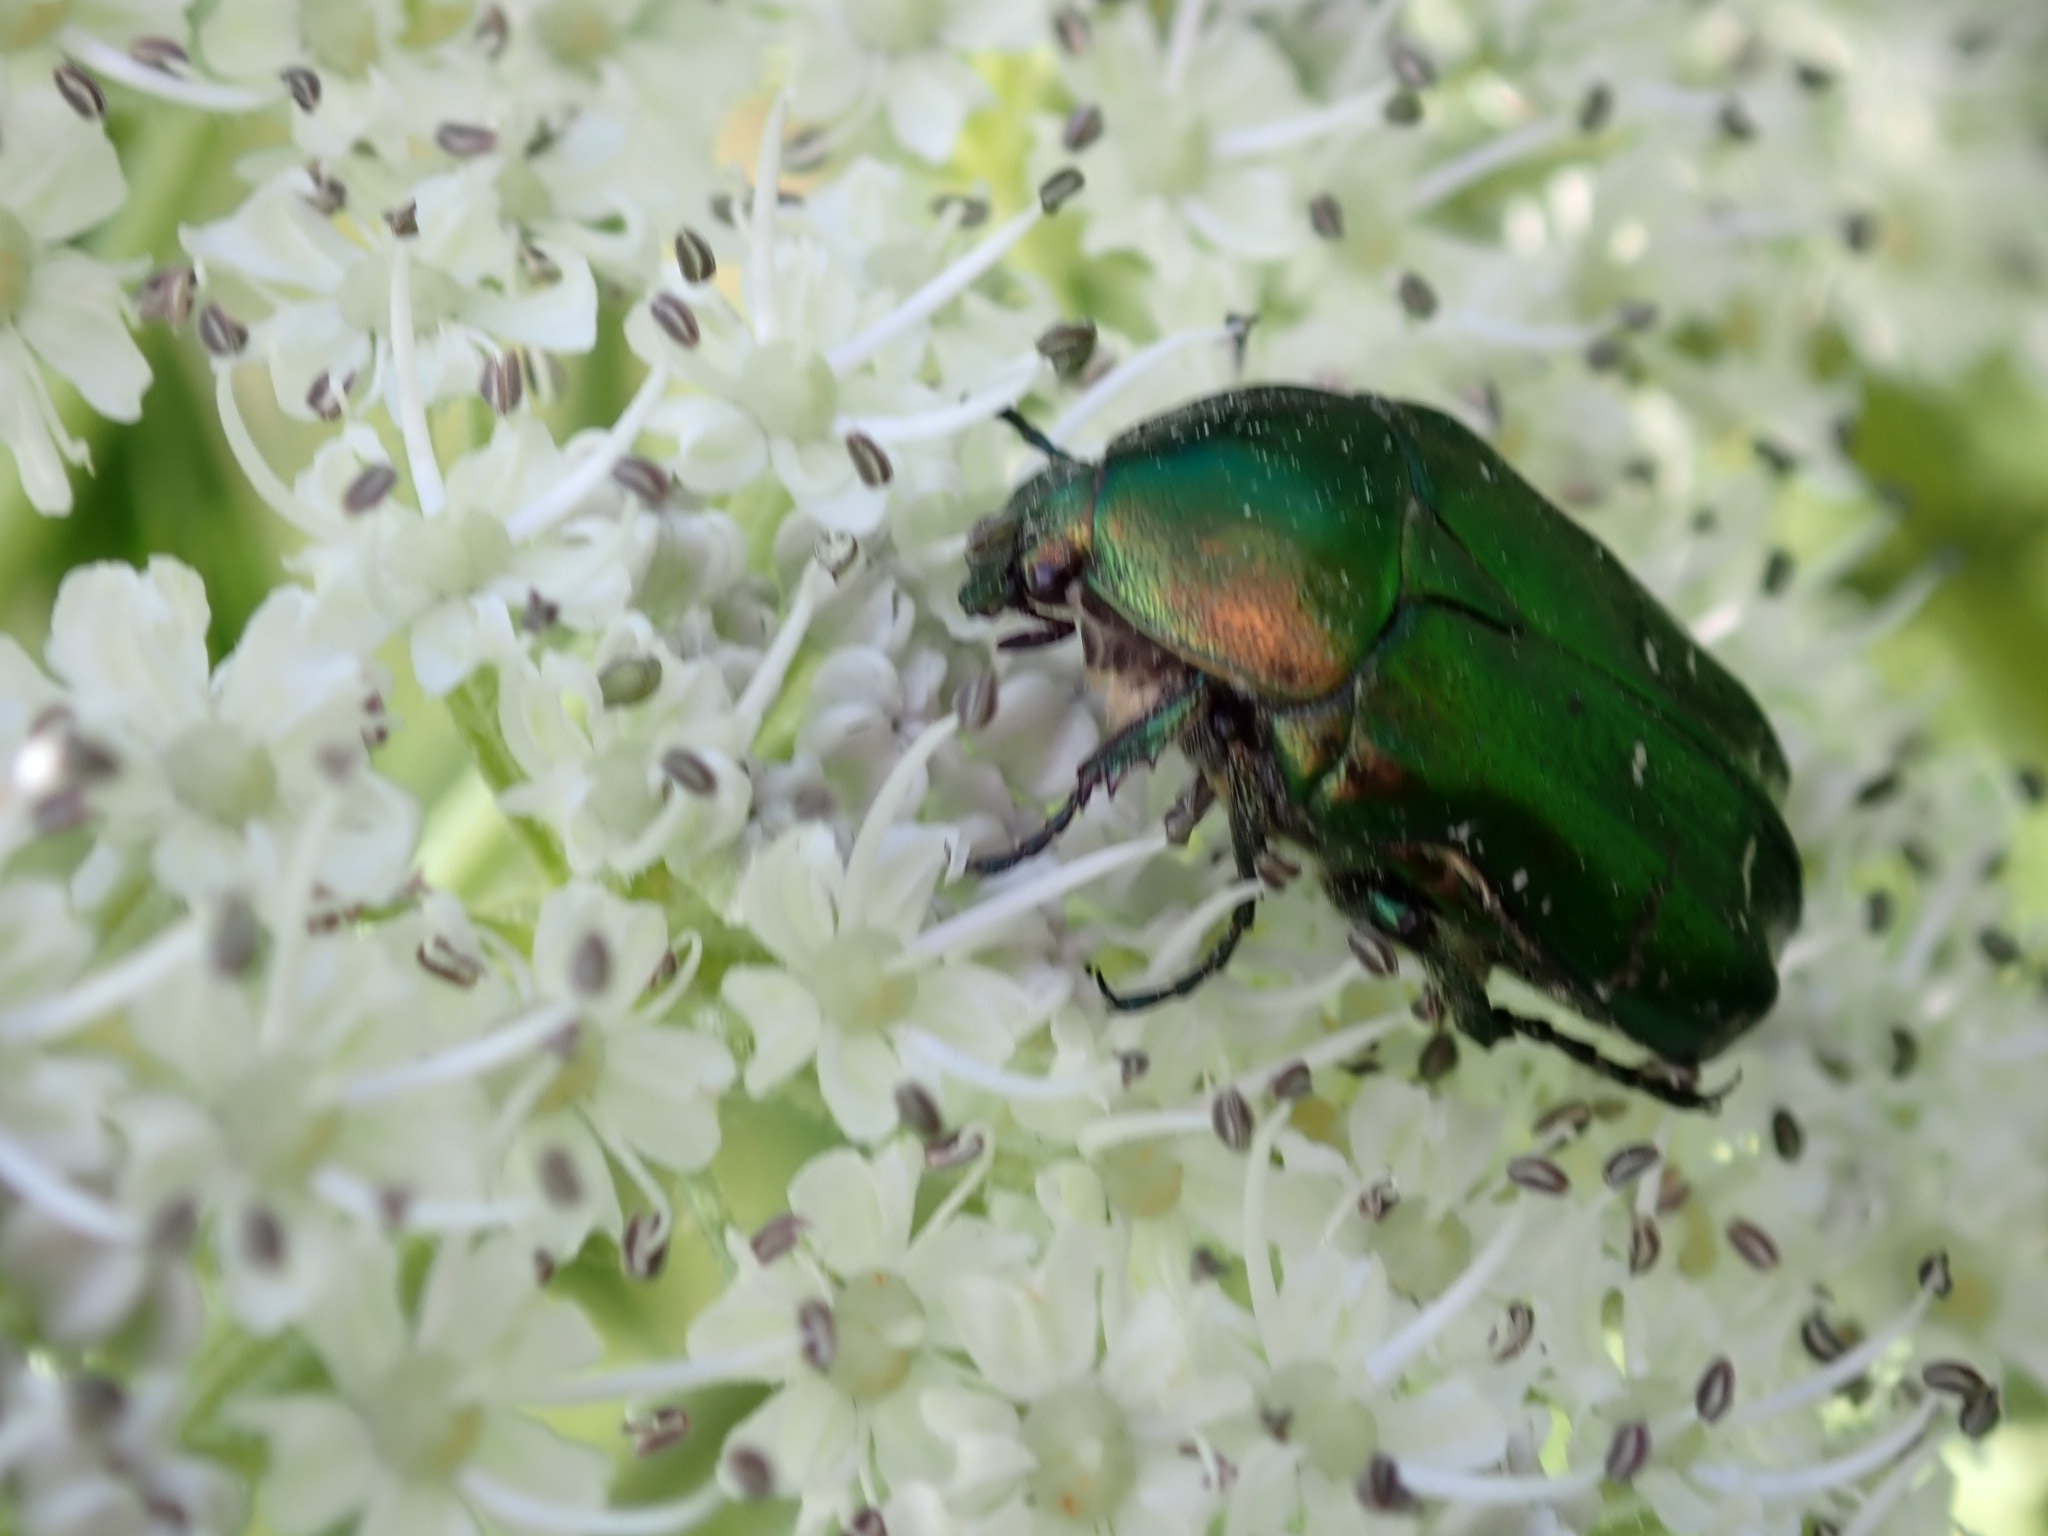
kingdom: Animalia
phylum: Arthropoda
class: Insecta
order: Coleoptera
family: Scarabaeidae
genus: Cetonia
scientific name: Cetonia aurata
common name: Rose chafer
